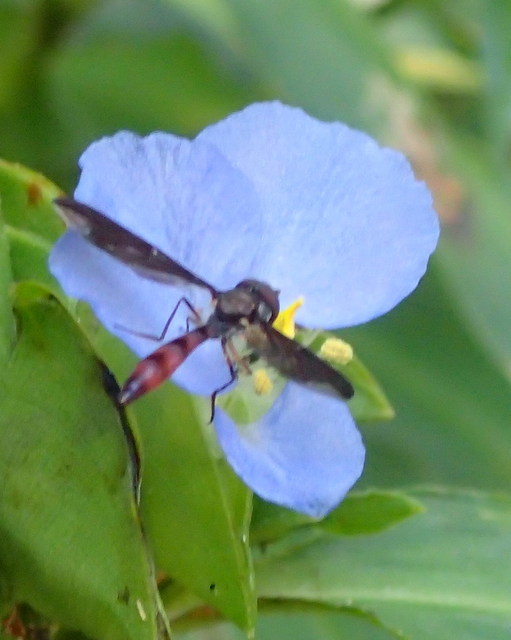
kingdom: Animalia
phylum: Arthropoda
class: Insecta
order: Diptera
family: Syrphidae
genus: Ocyptamus
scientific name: Ocyptamus fuscipennis
